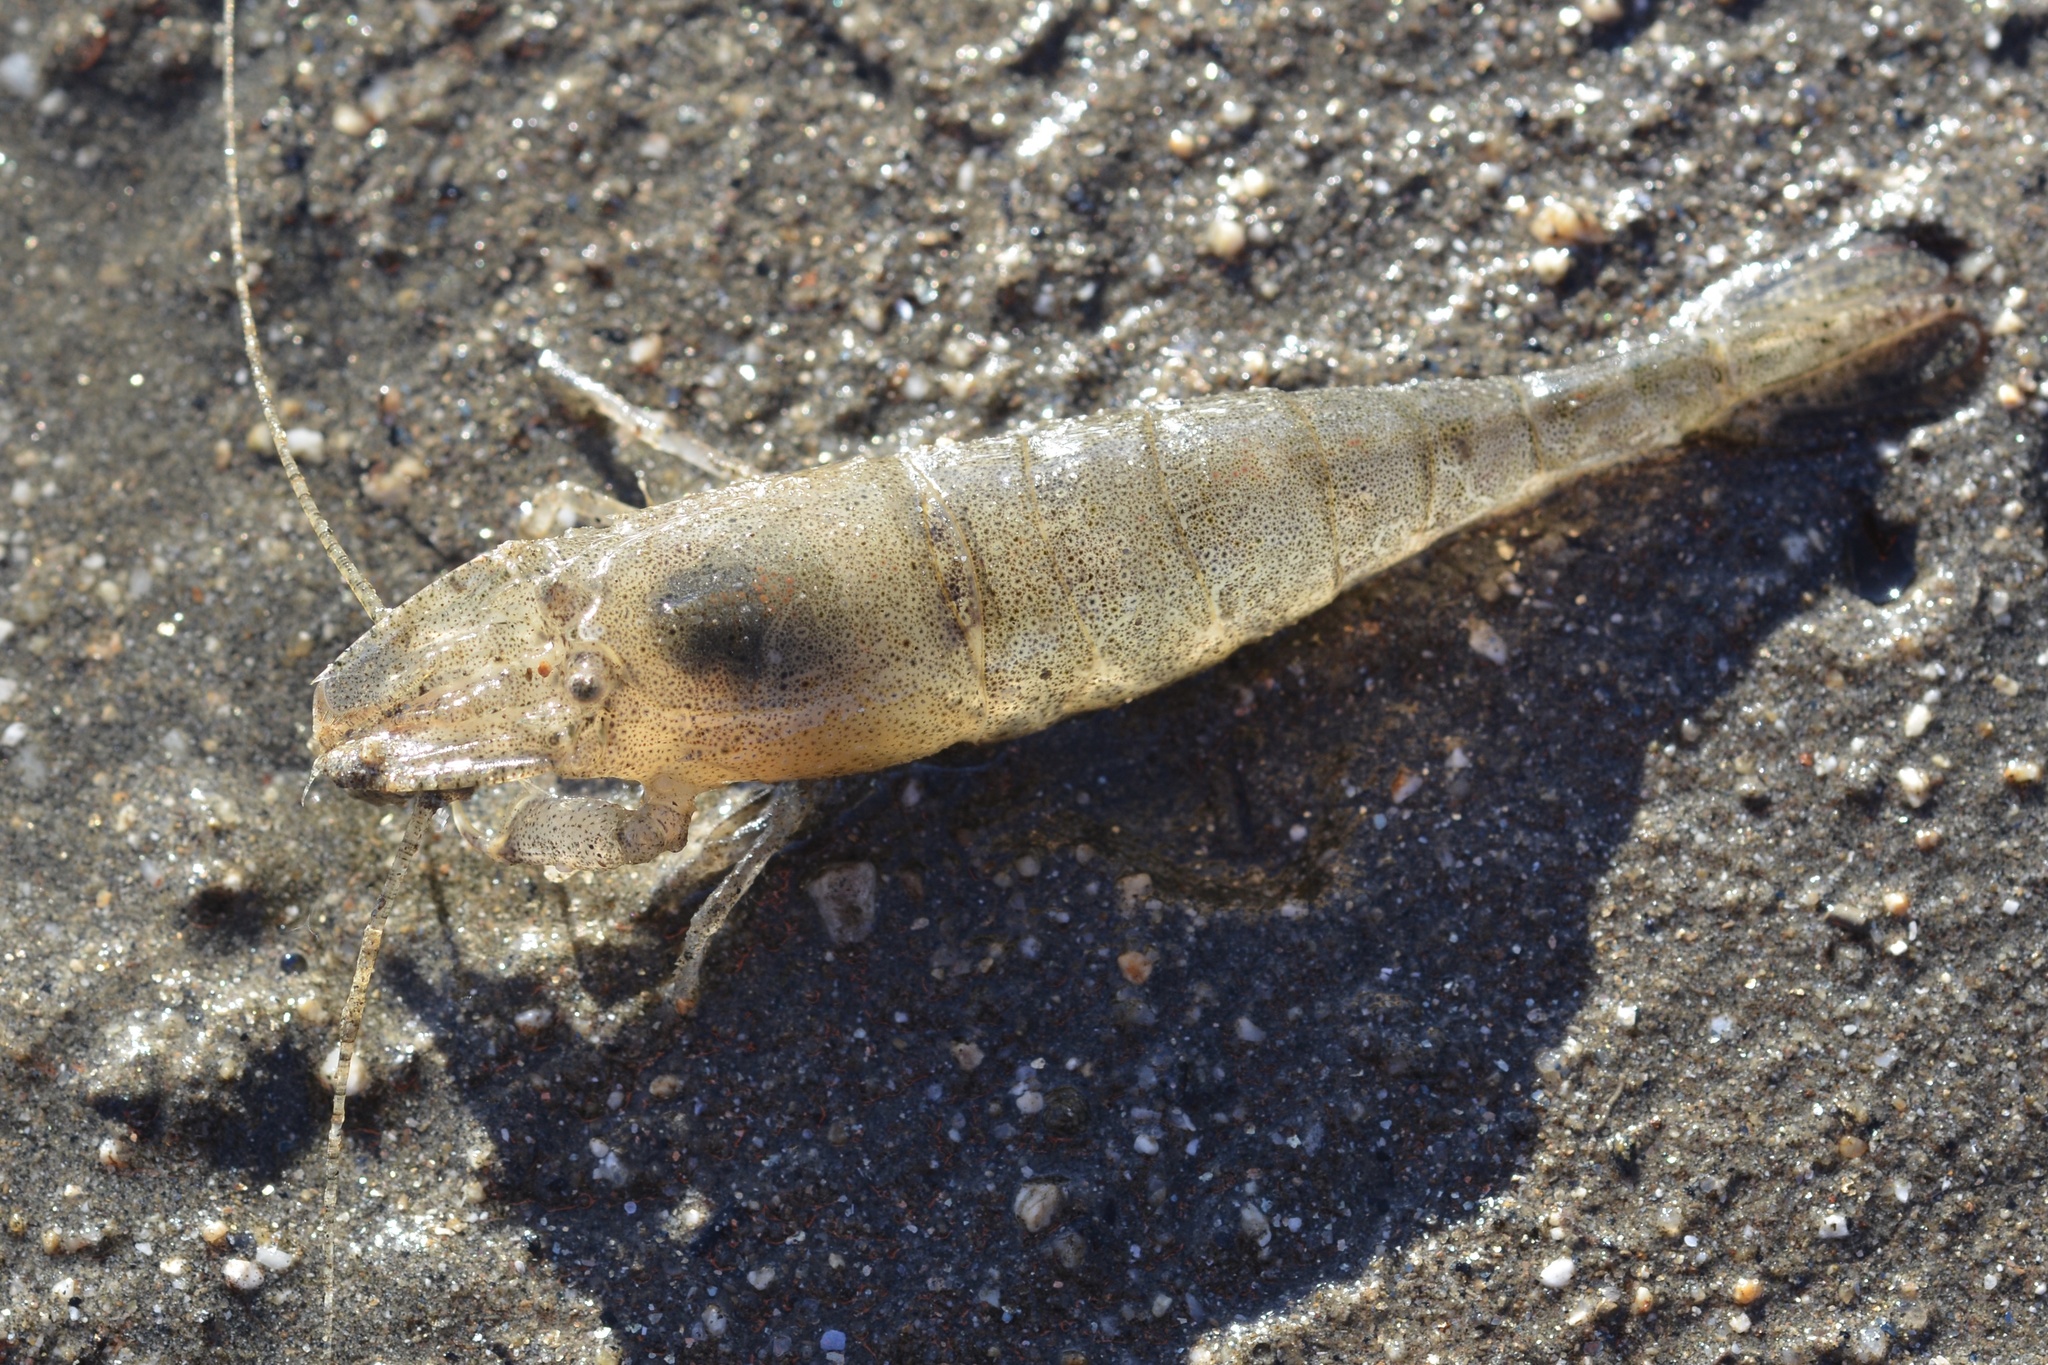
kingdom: Animalia
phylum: Arthropoda
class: Malacostraca
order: Decapoda
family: Crangonidae
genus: Crangon
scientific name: Crangon franciscorum
